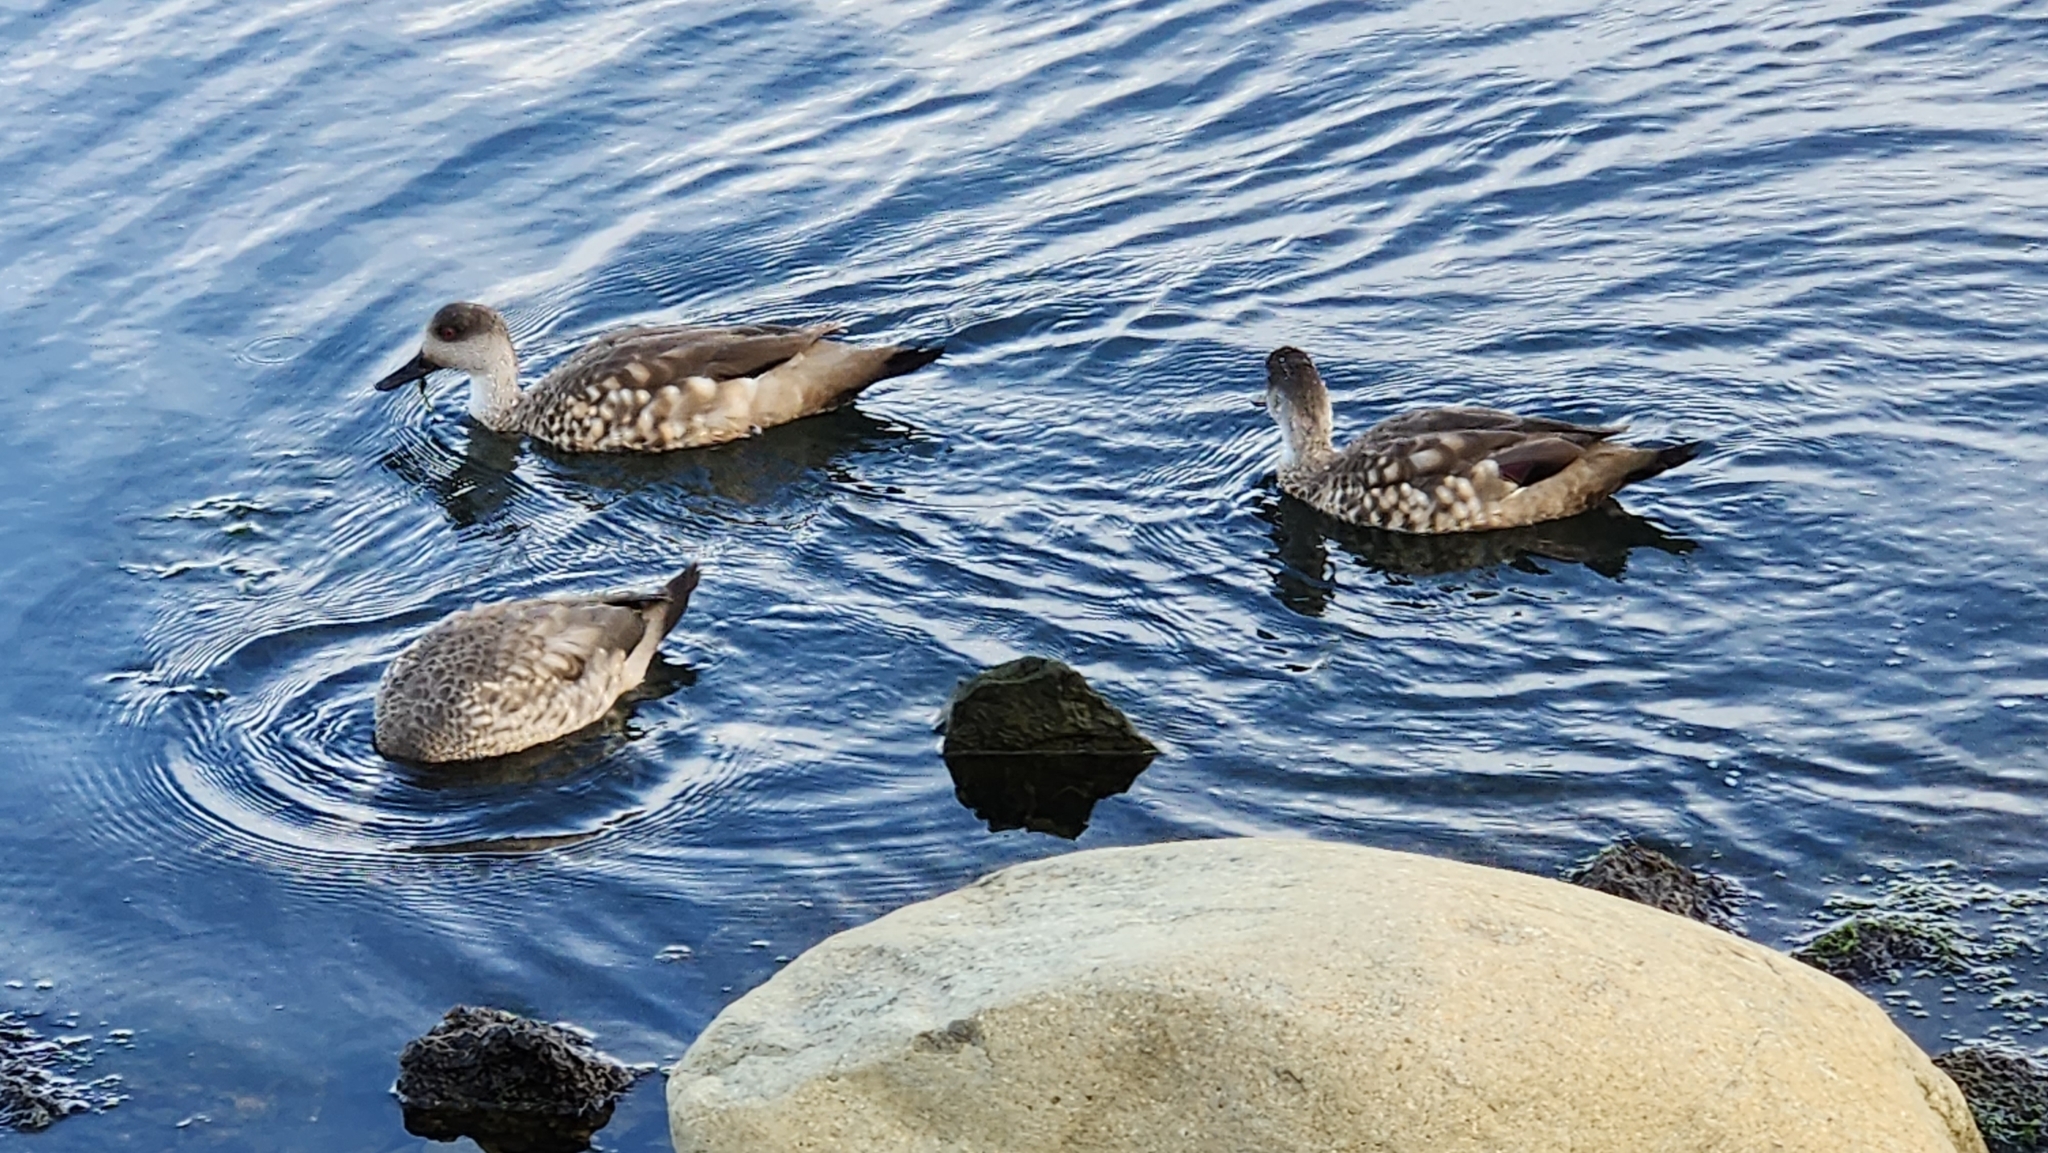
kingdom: Animalia
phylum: Chordata
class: Aves
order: Anseriformes
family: Anatidae
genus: Lophonetta
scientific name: Lophonetta specularioides
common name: Crested duck
